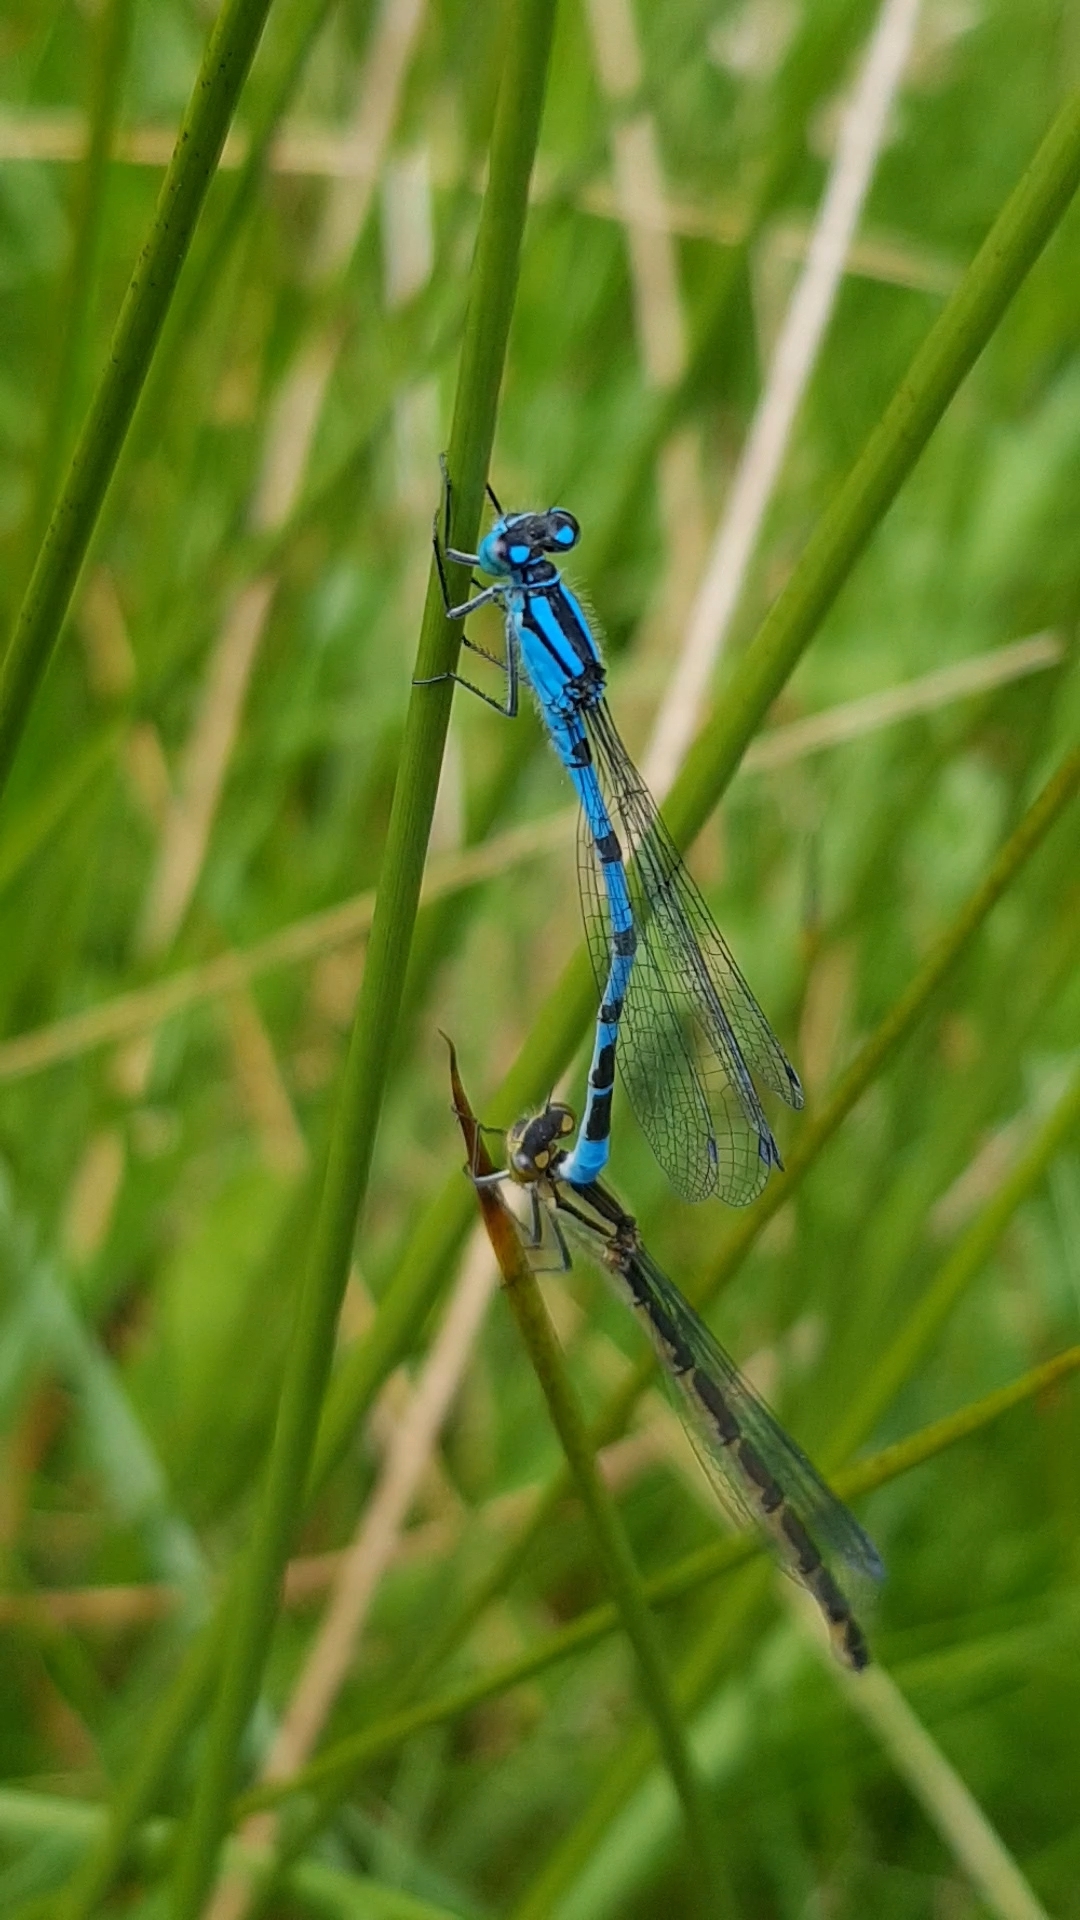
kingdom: Animalia
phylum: Arthropoda
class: Insecta
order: Odonata
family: Coenagrionidae
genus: Enallagma
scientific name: Enallagma cyathigerum
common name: Common blue damselfly
